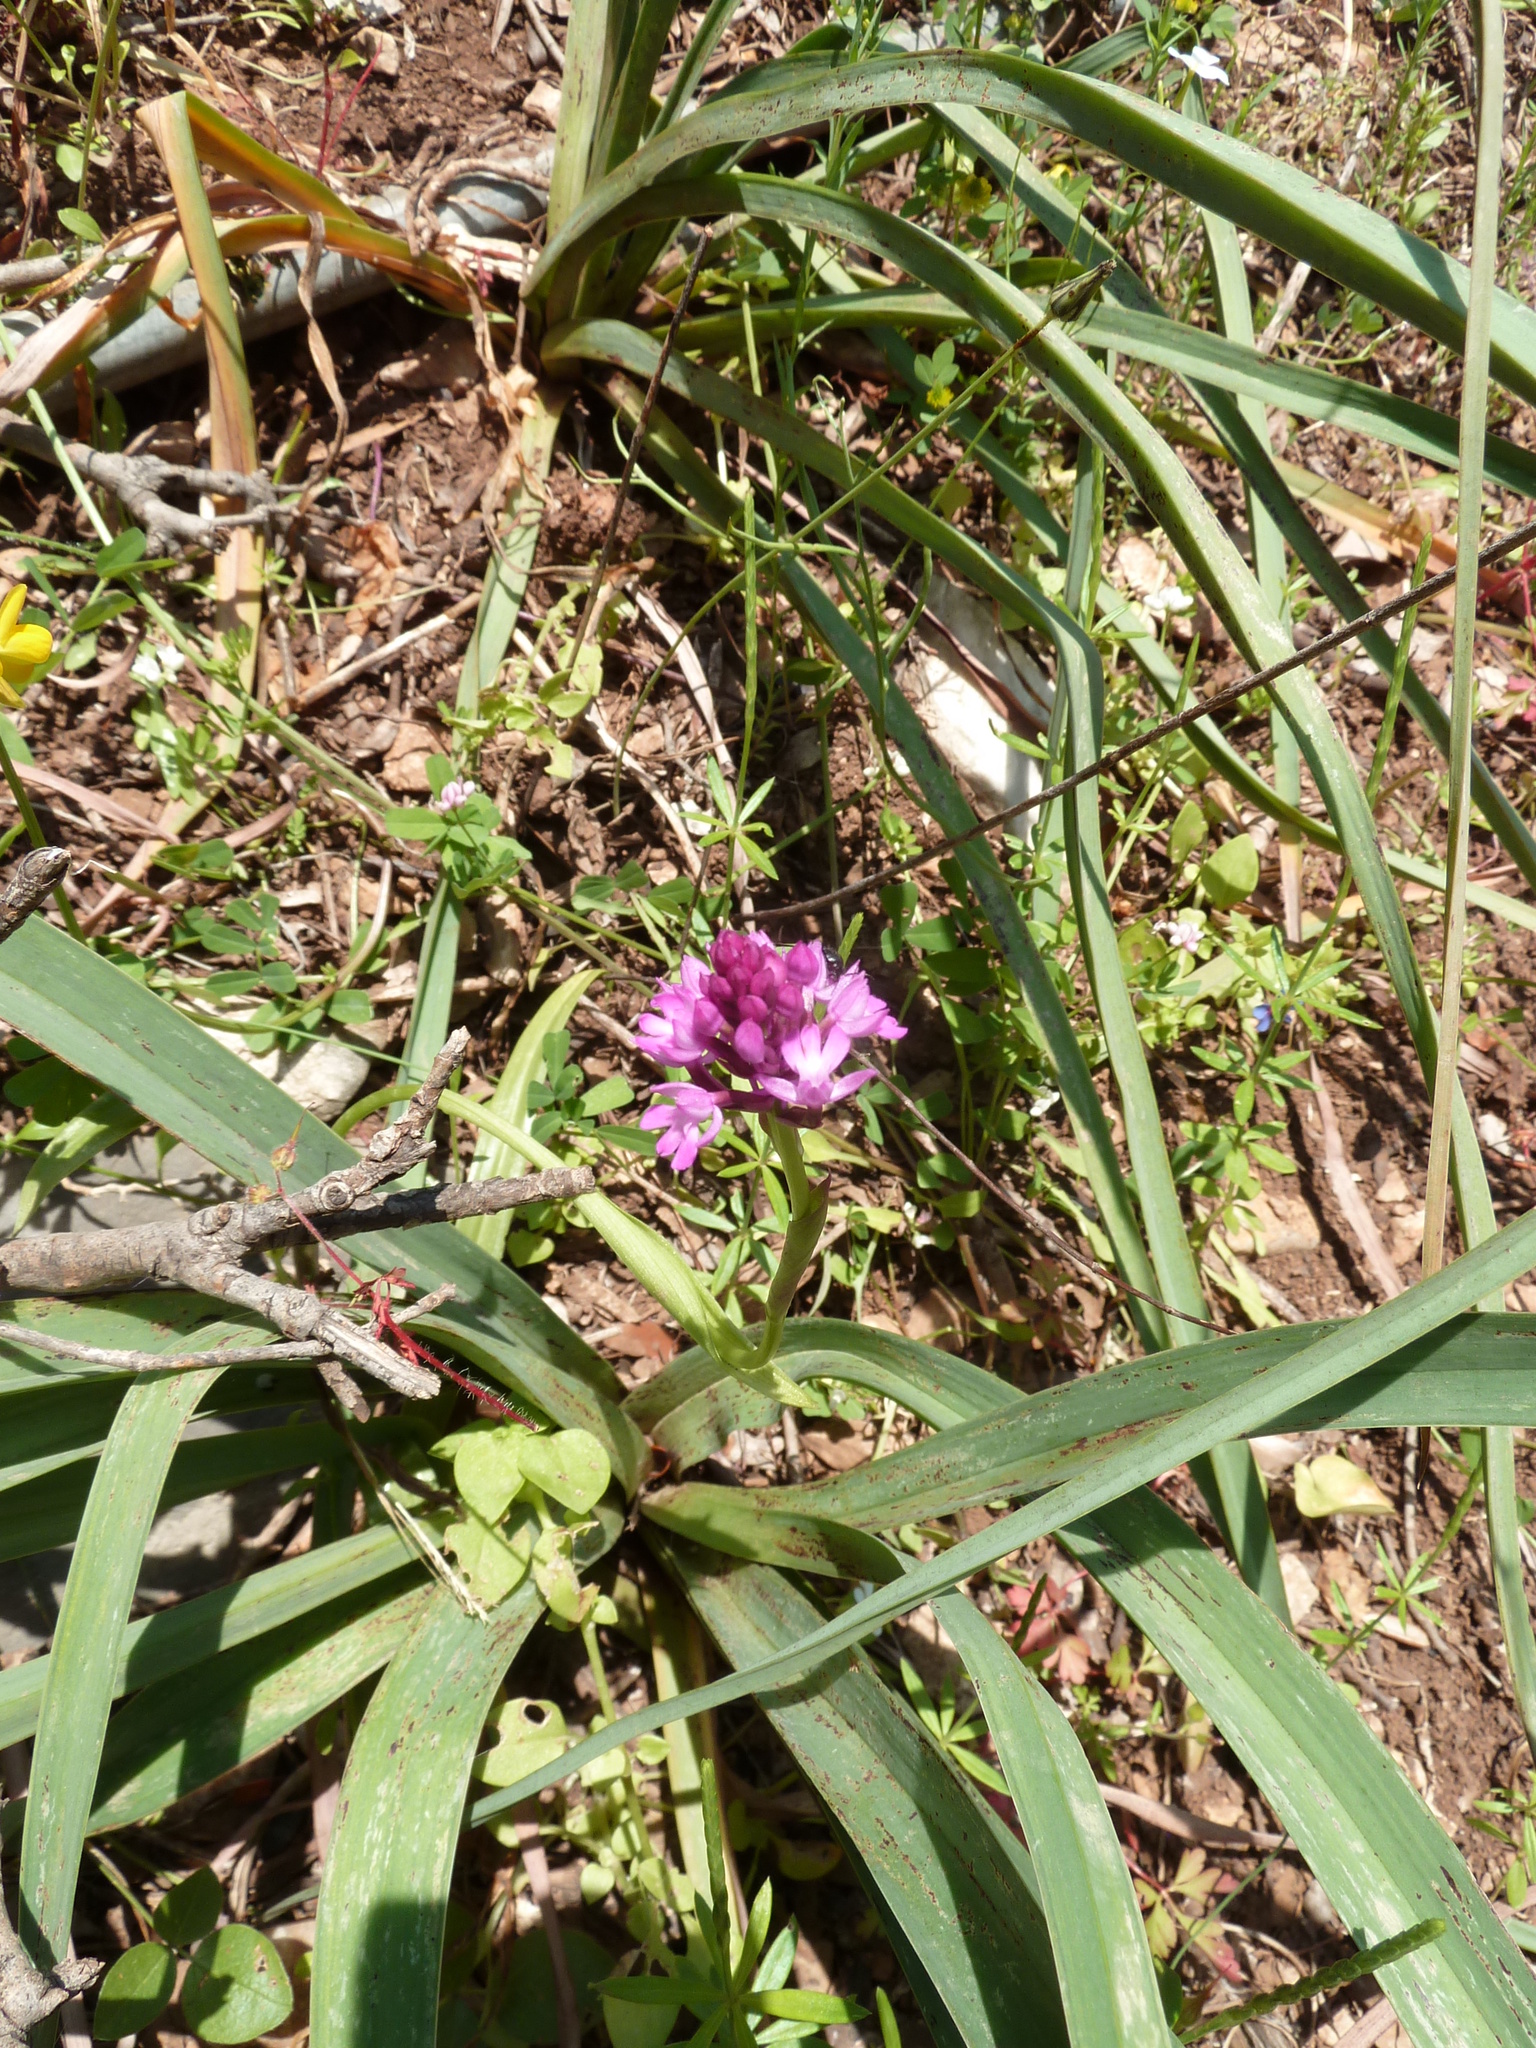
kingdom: Plantae
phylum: Tracheophyta
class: Liliopsida
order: Asparagales
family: Orchidaceae
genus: Anacamptis
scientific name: Anacamptis pyramidalis
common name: Pyramidal orchid
